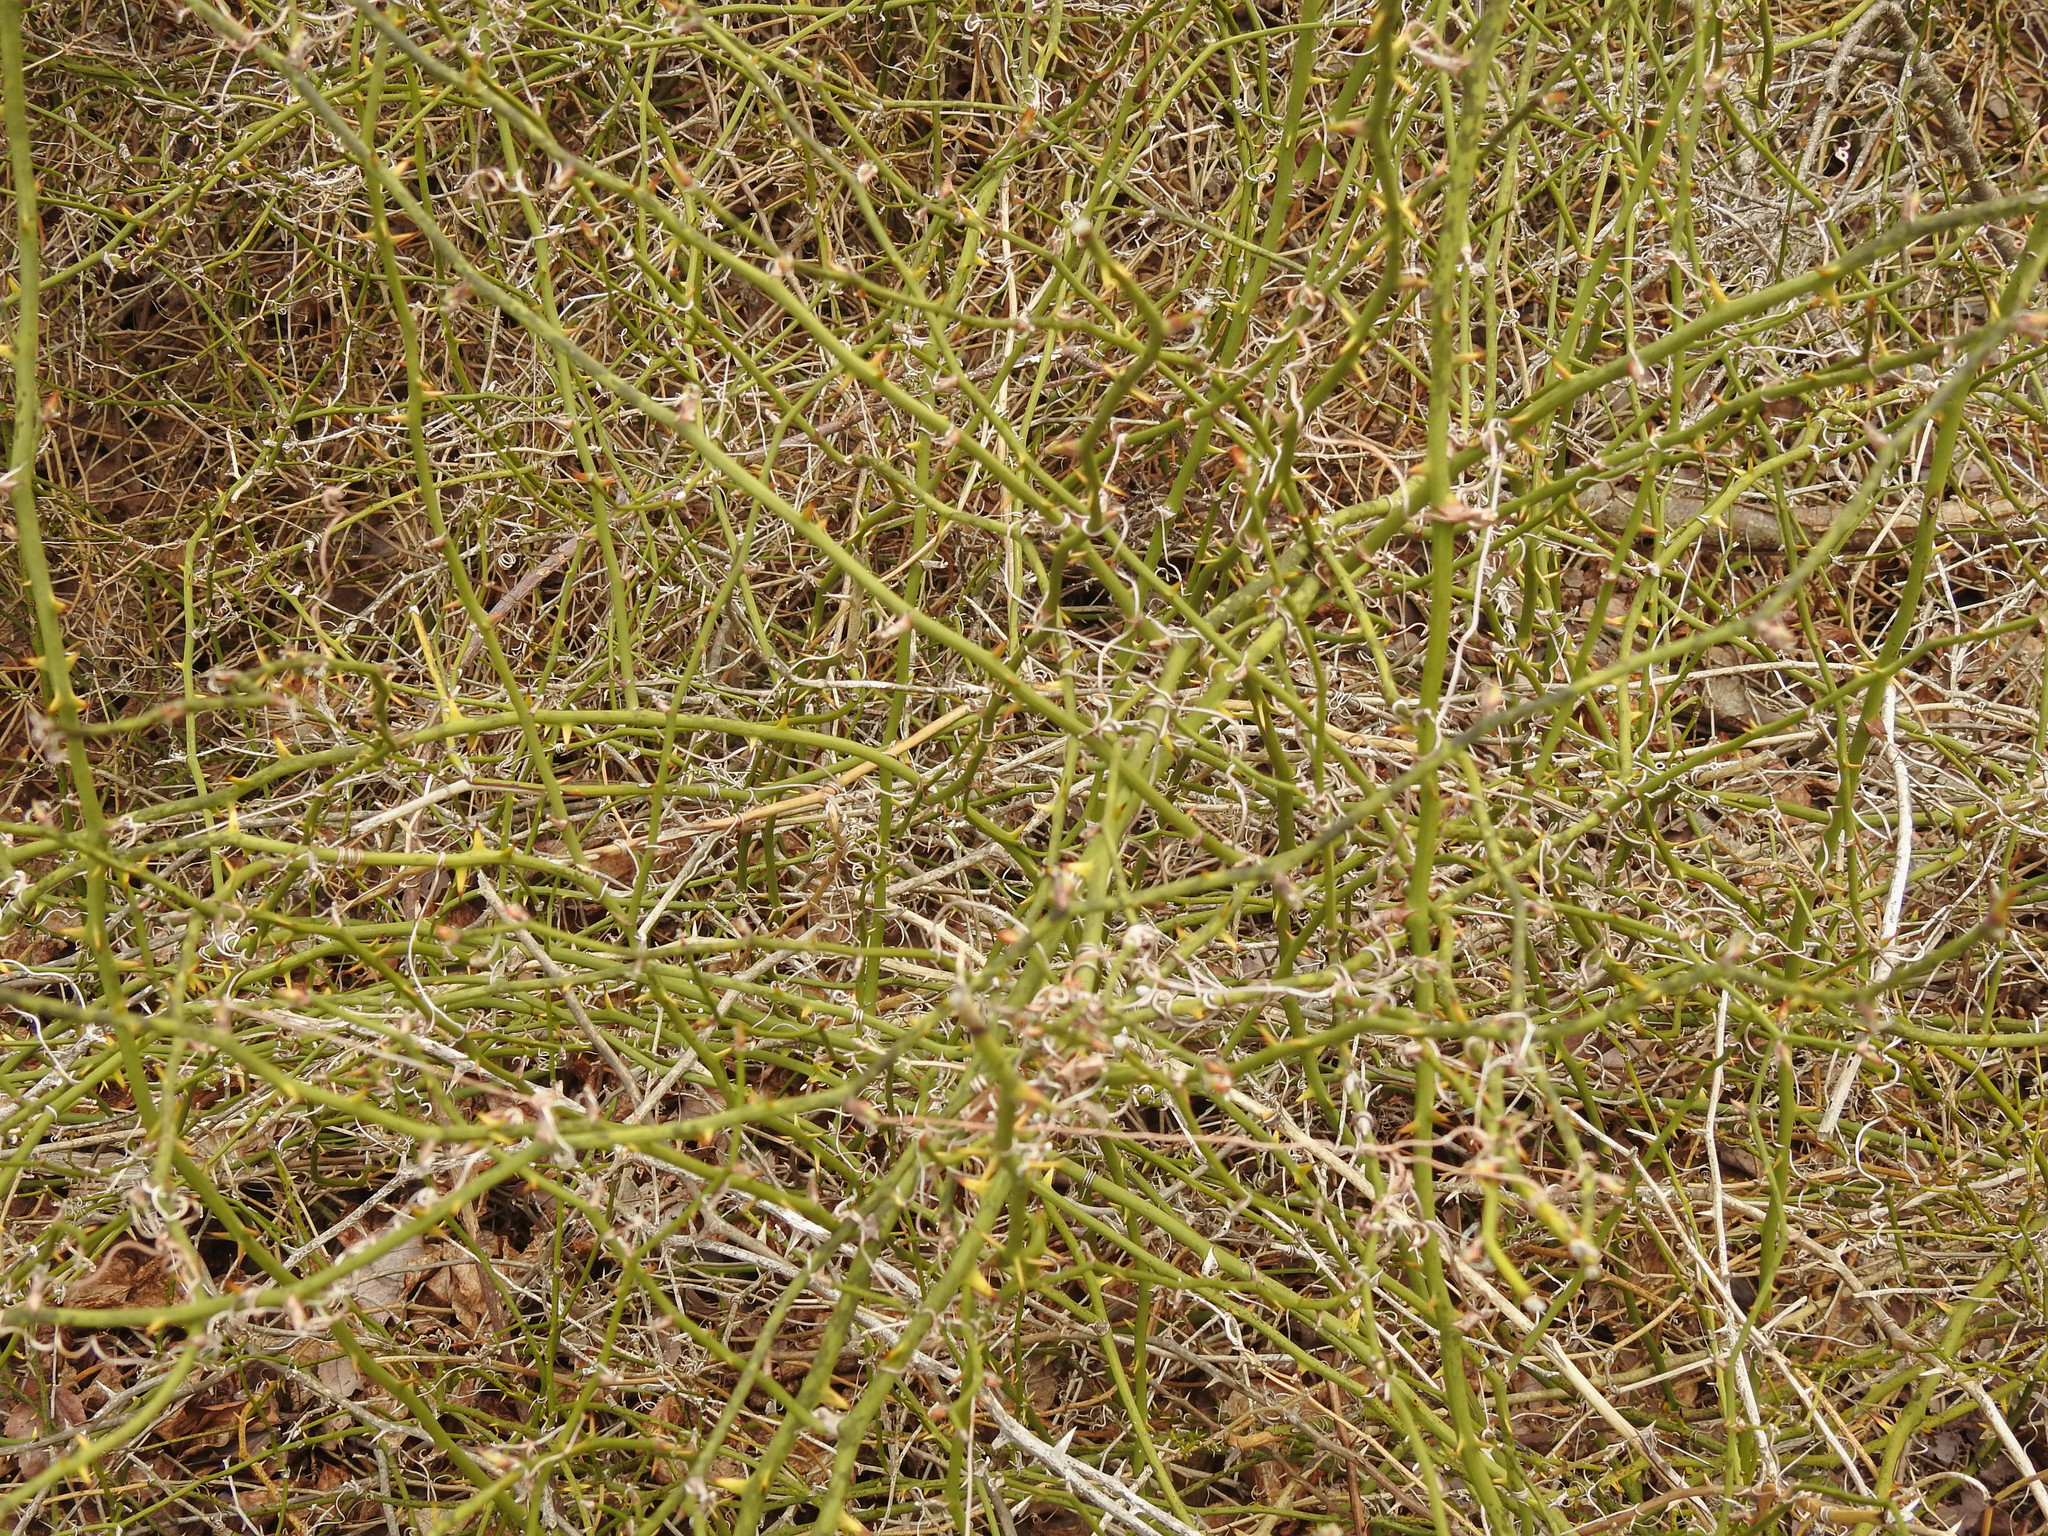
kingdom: Plantae
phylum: Tracheophyta
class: Liliopsida
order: Liliales
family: Smilacaceae
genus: Smilax
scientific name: Smilax rotundifolia
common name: Bullbriar
